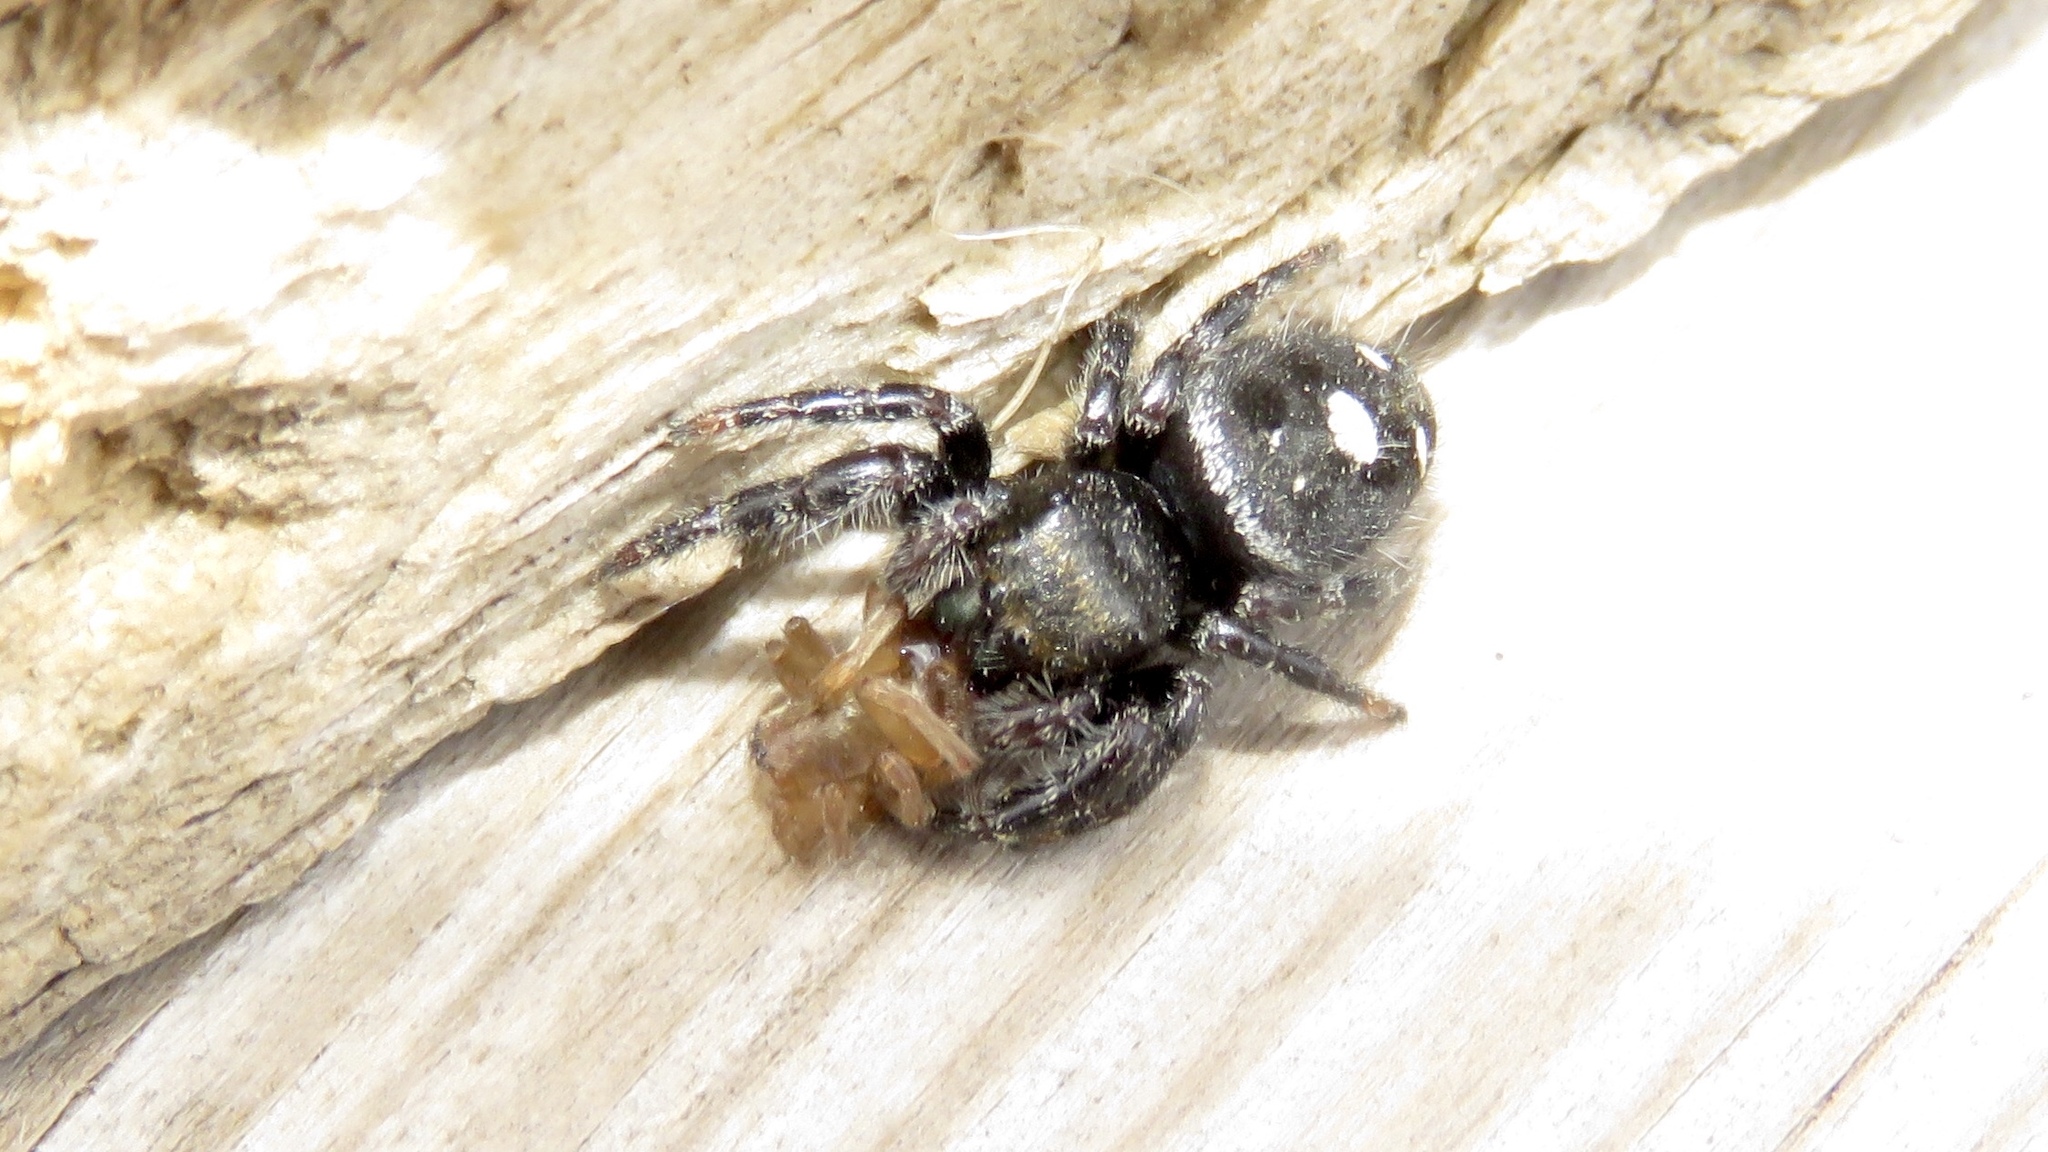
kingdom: Animalia
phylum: Arthropoda
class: Arachnida
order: Araneae
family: Salticidae
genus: Phidippus
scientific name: Phidippus audax
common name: Bold jumper
